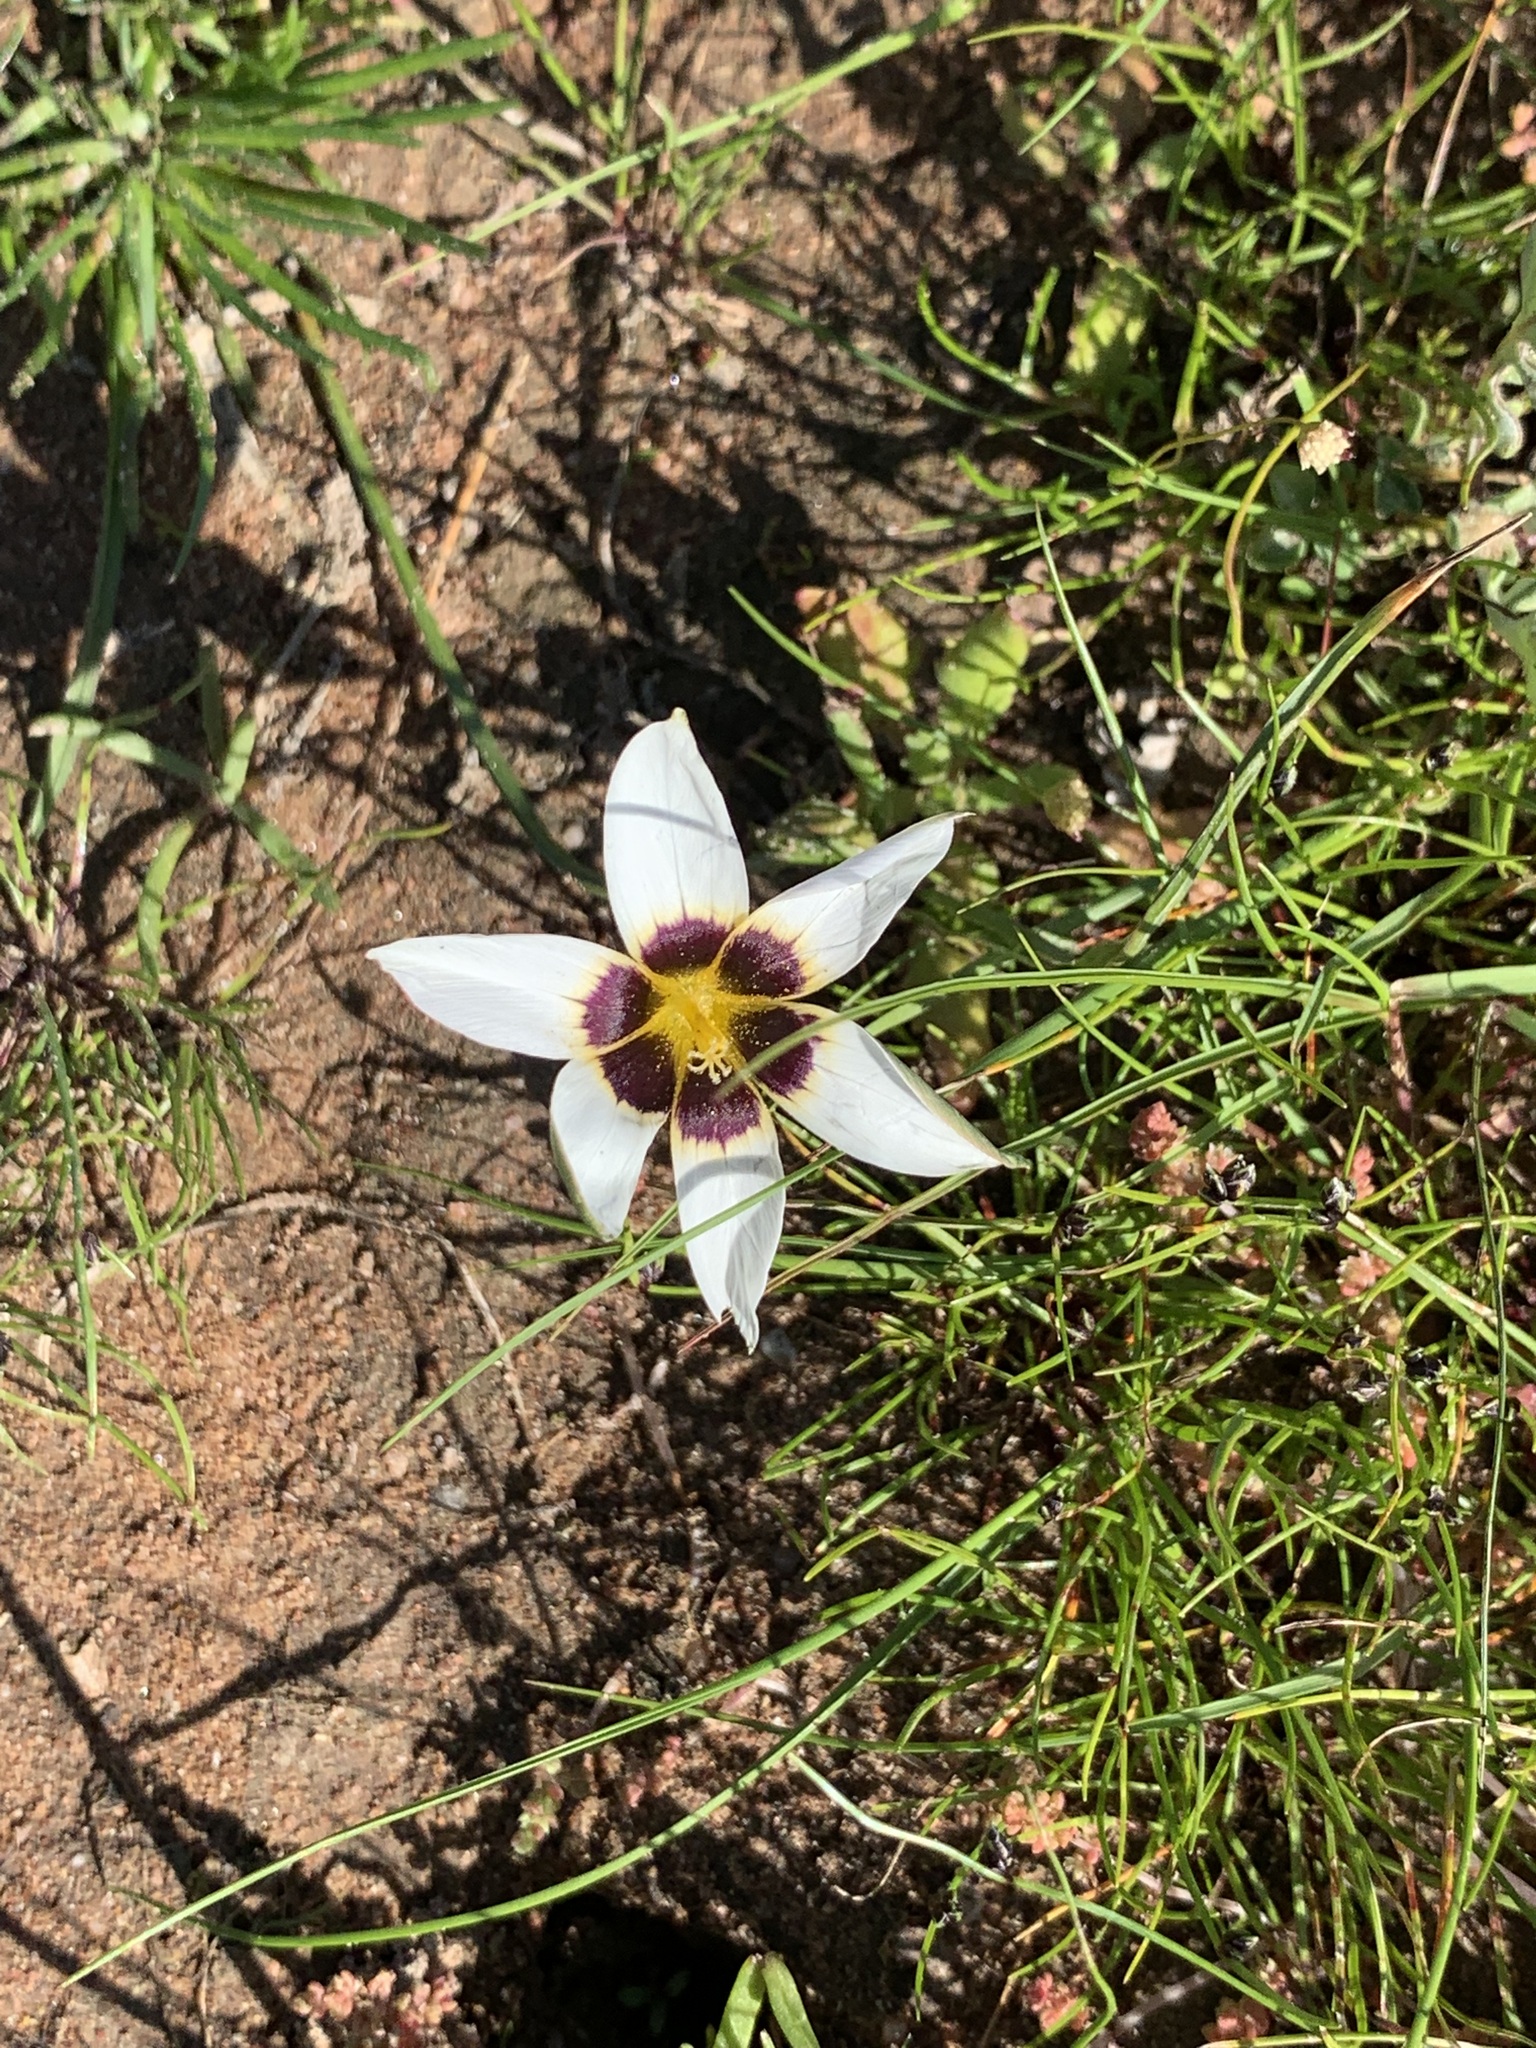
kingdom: Plantae
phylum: Tracheophyta
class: Liliopsida
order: Asparagales
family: Hypoxidaceae
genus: Pauridia
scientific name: Pauridia capensis
